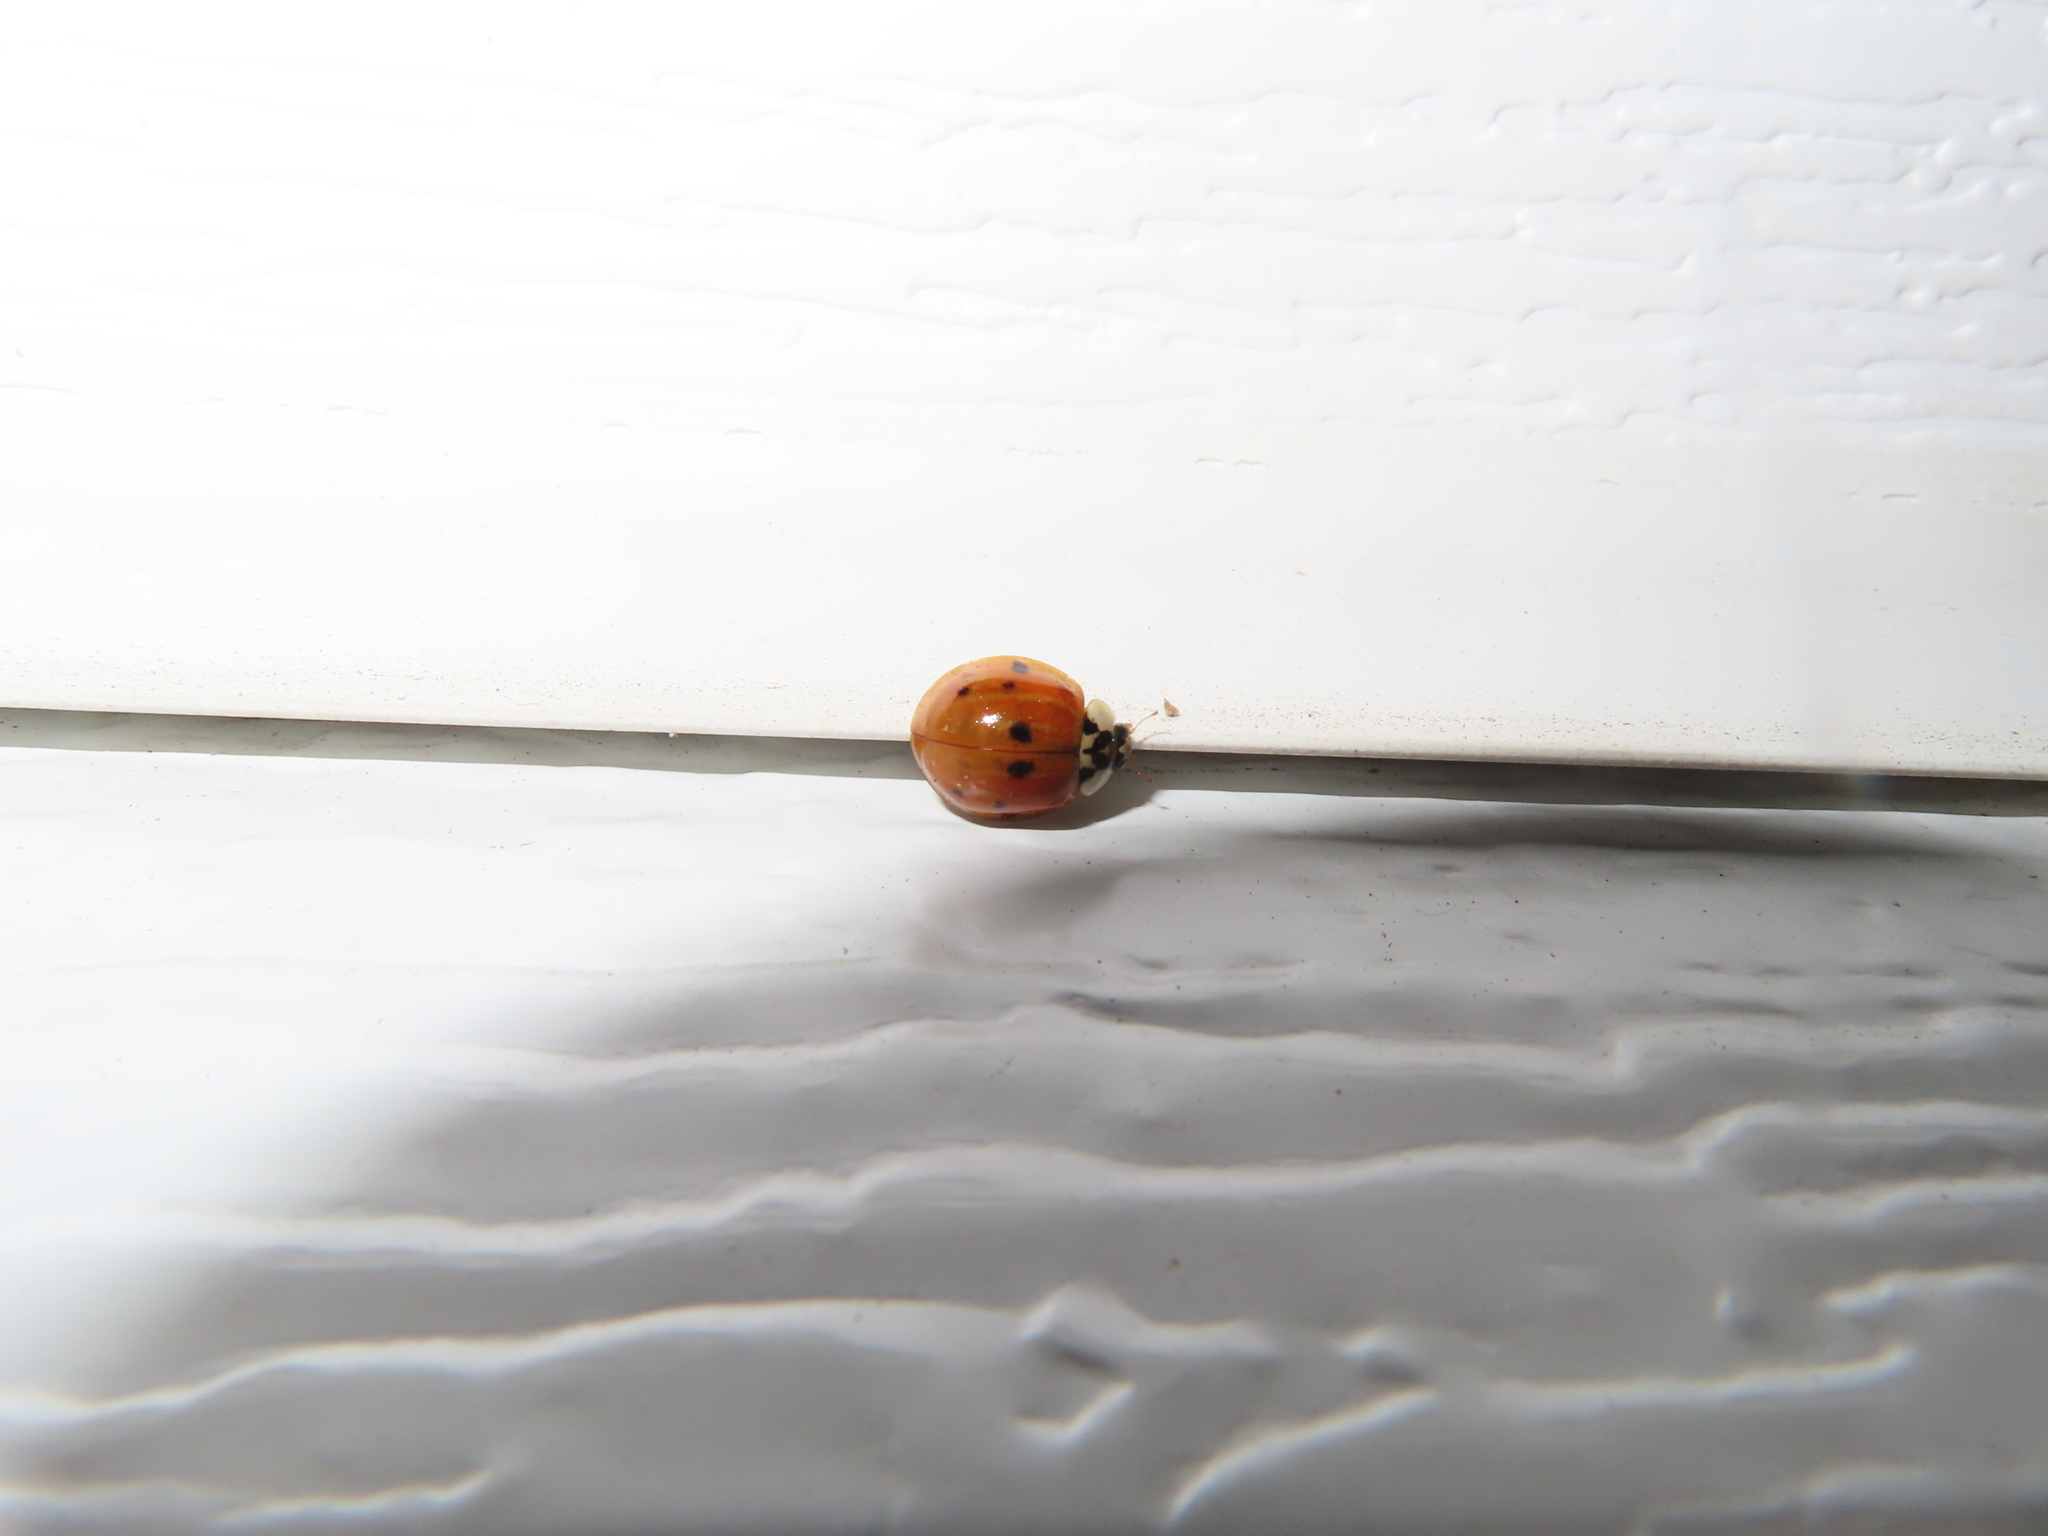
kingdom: Animalia
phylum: Arthropoda
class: Insecta
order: Coleoptera
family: Coccinellidae
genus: Harmonia
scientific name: Harmonia axyridis
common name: Harlequin ladybird
